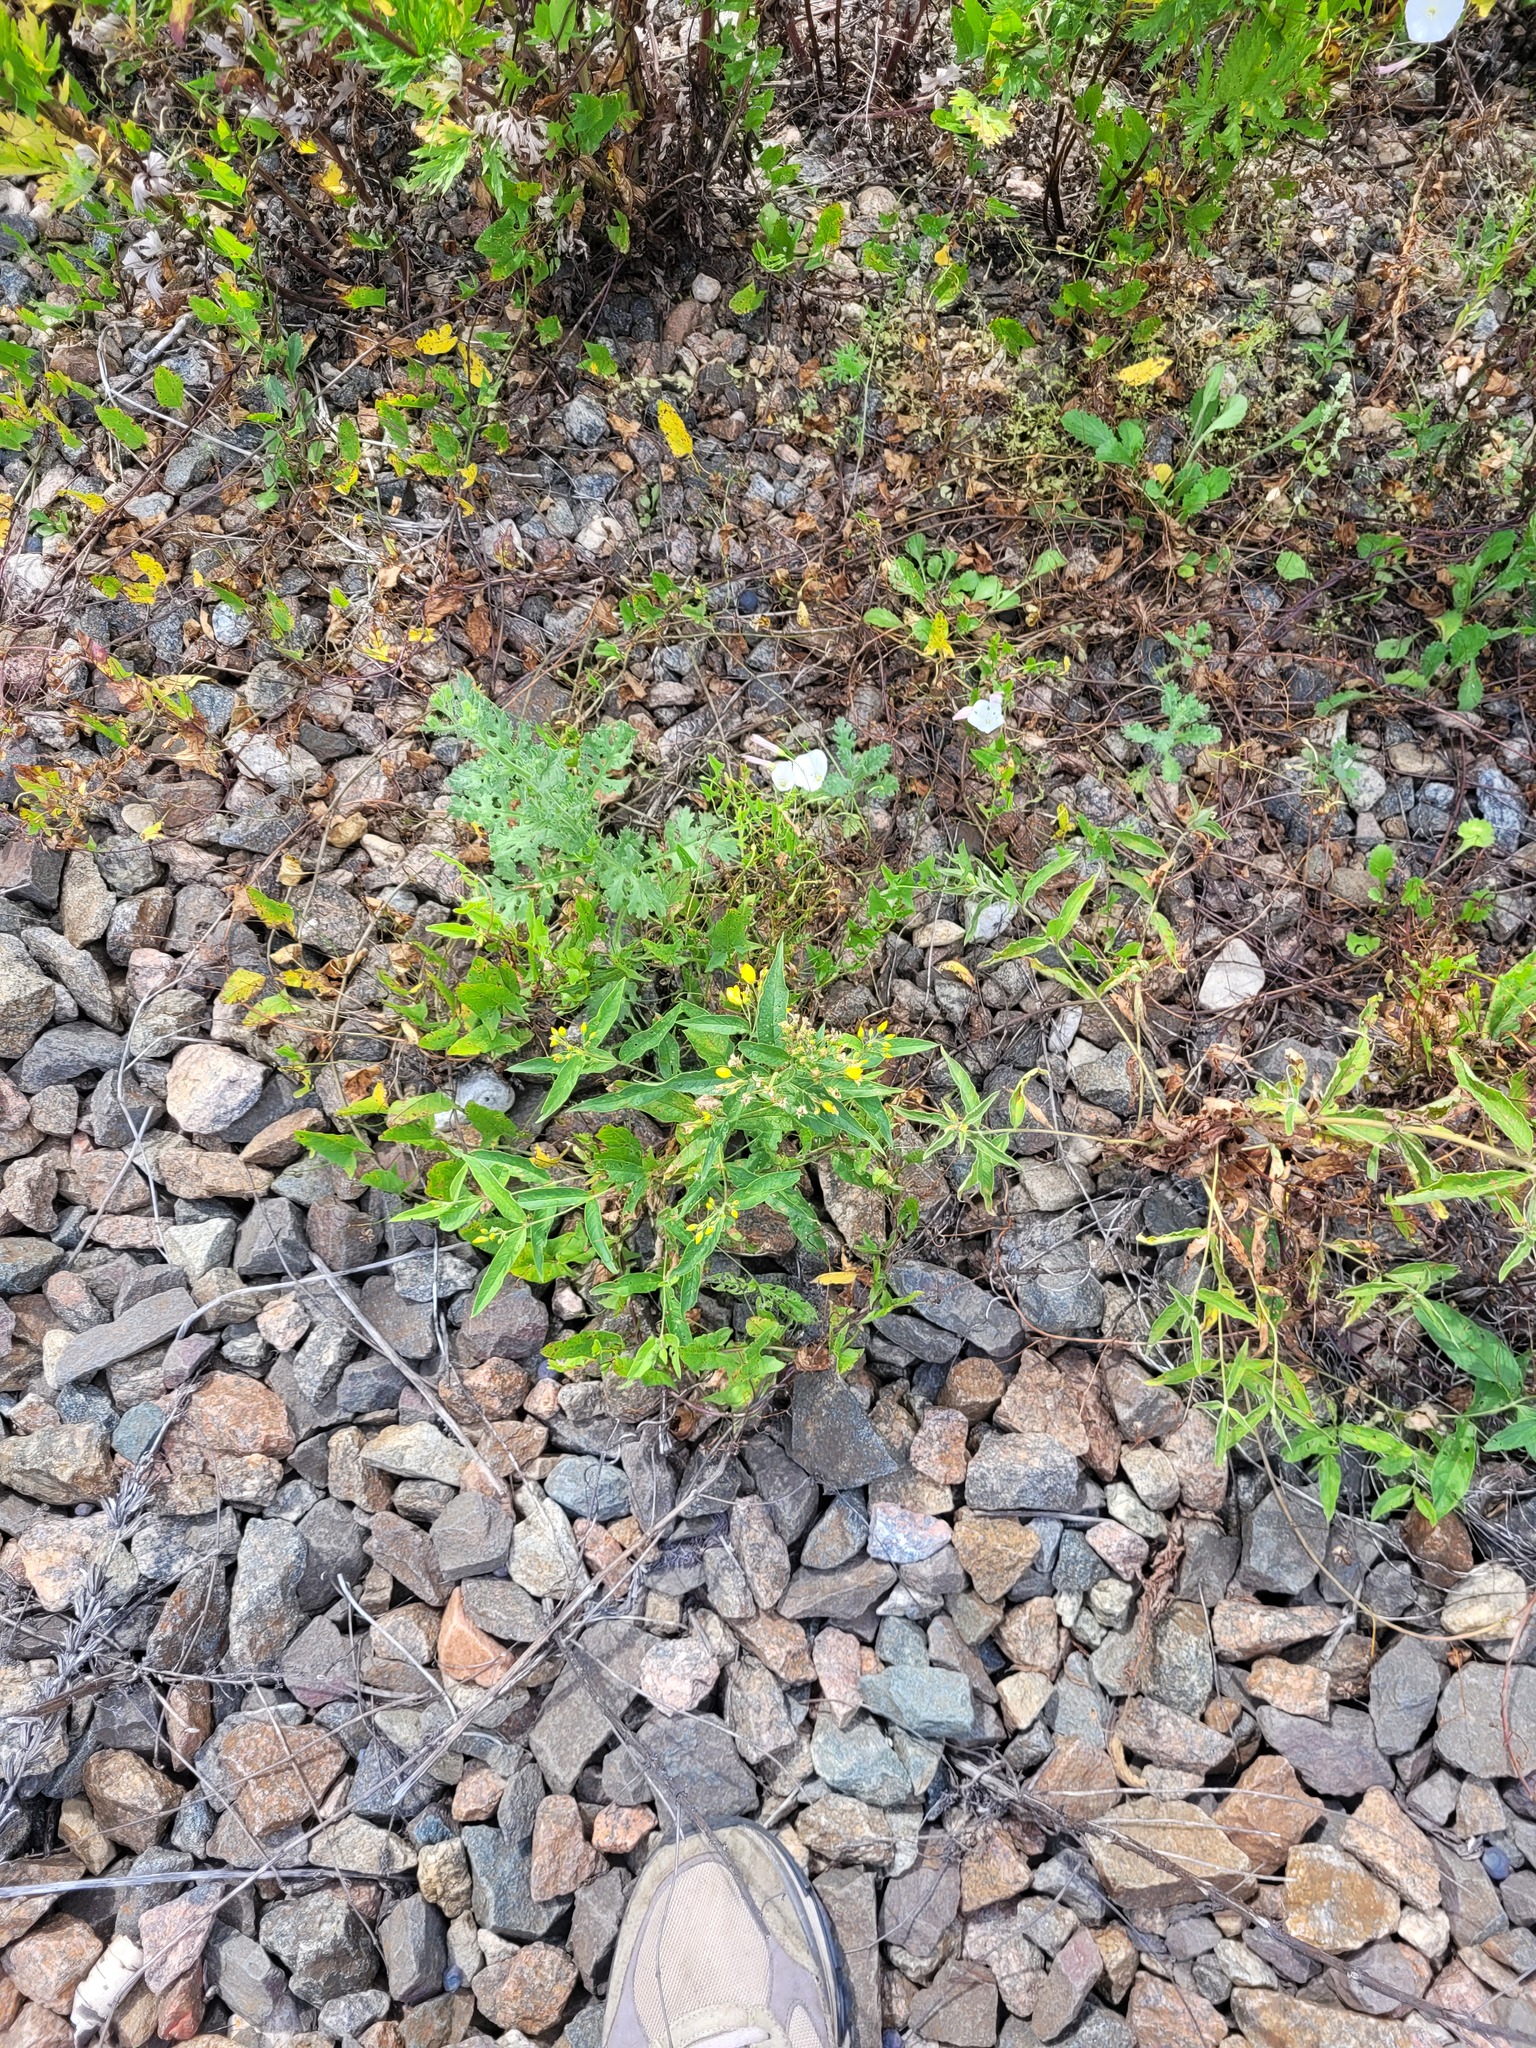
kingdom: Plantae
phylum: Tracheophyta
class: Magnoliopsida
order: Ericales
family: Primulaceae
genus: Lysimachia
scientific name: Lysimachia vulgaris
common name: Yellow loosestrife
